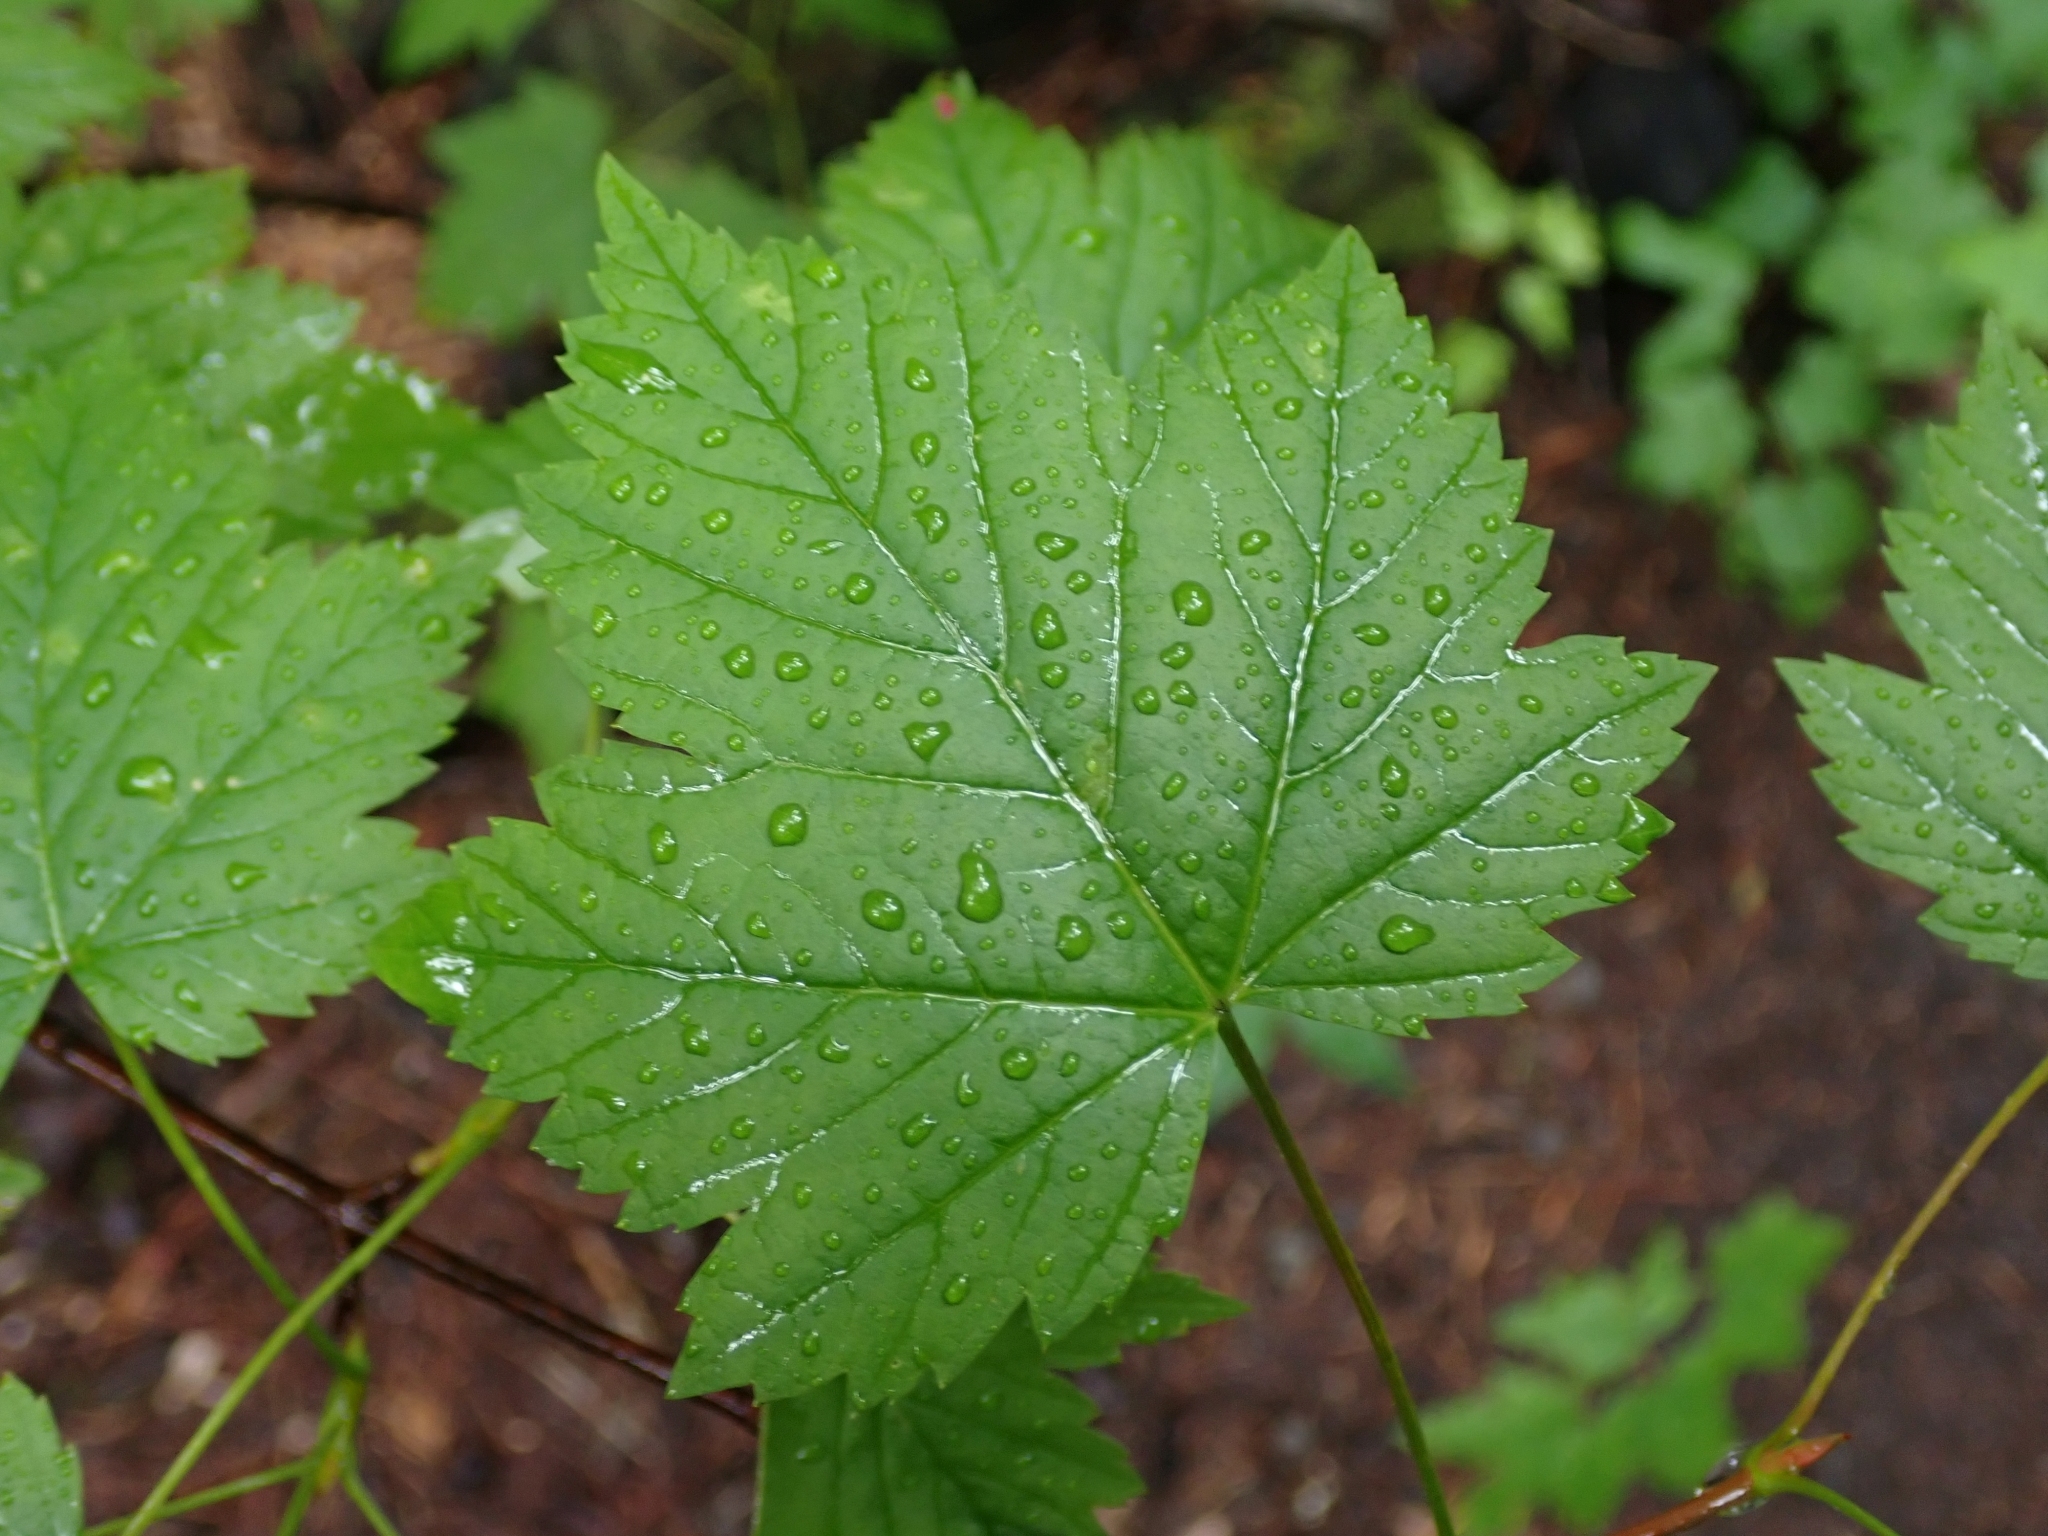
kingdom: Plantae
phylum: Tracheophyta
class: Magnoliopsida
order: Sapindales
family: Sapindaceae
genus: Acer
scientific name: Acer glabrum
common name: Rocky mountain maple
